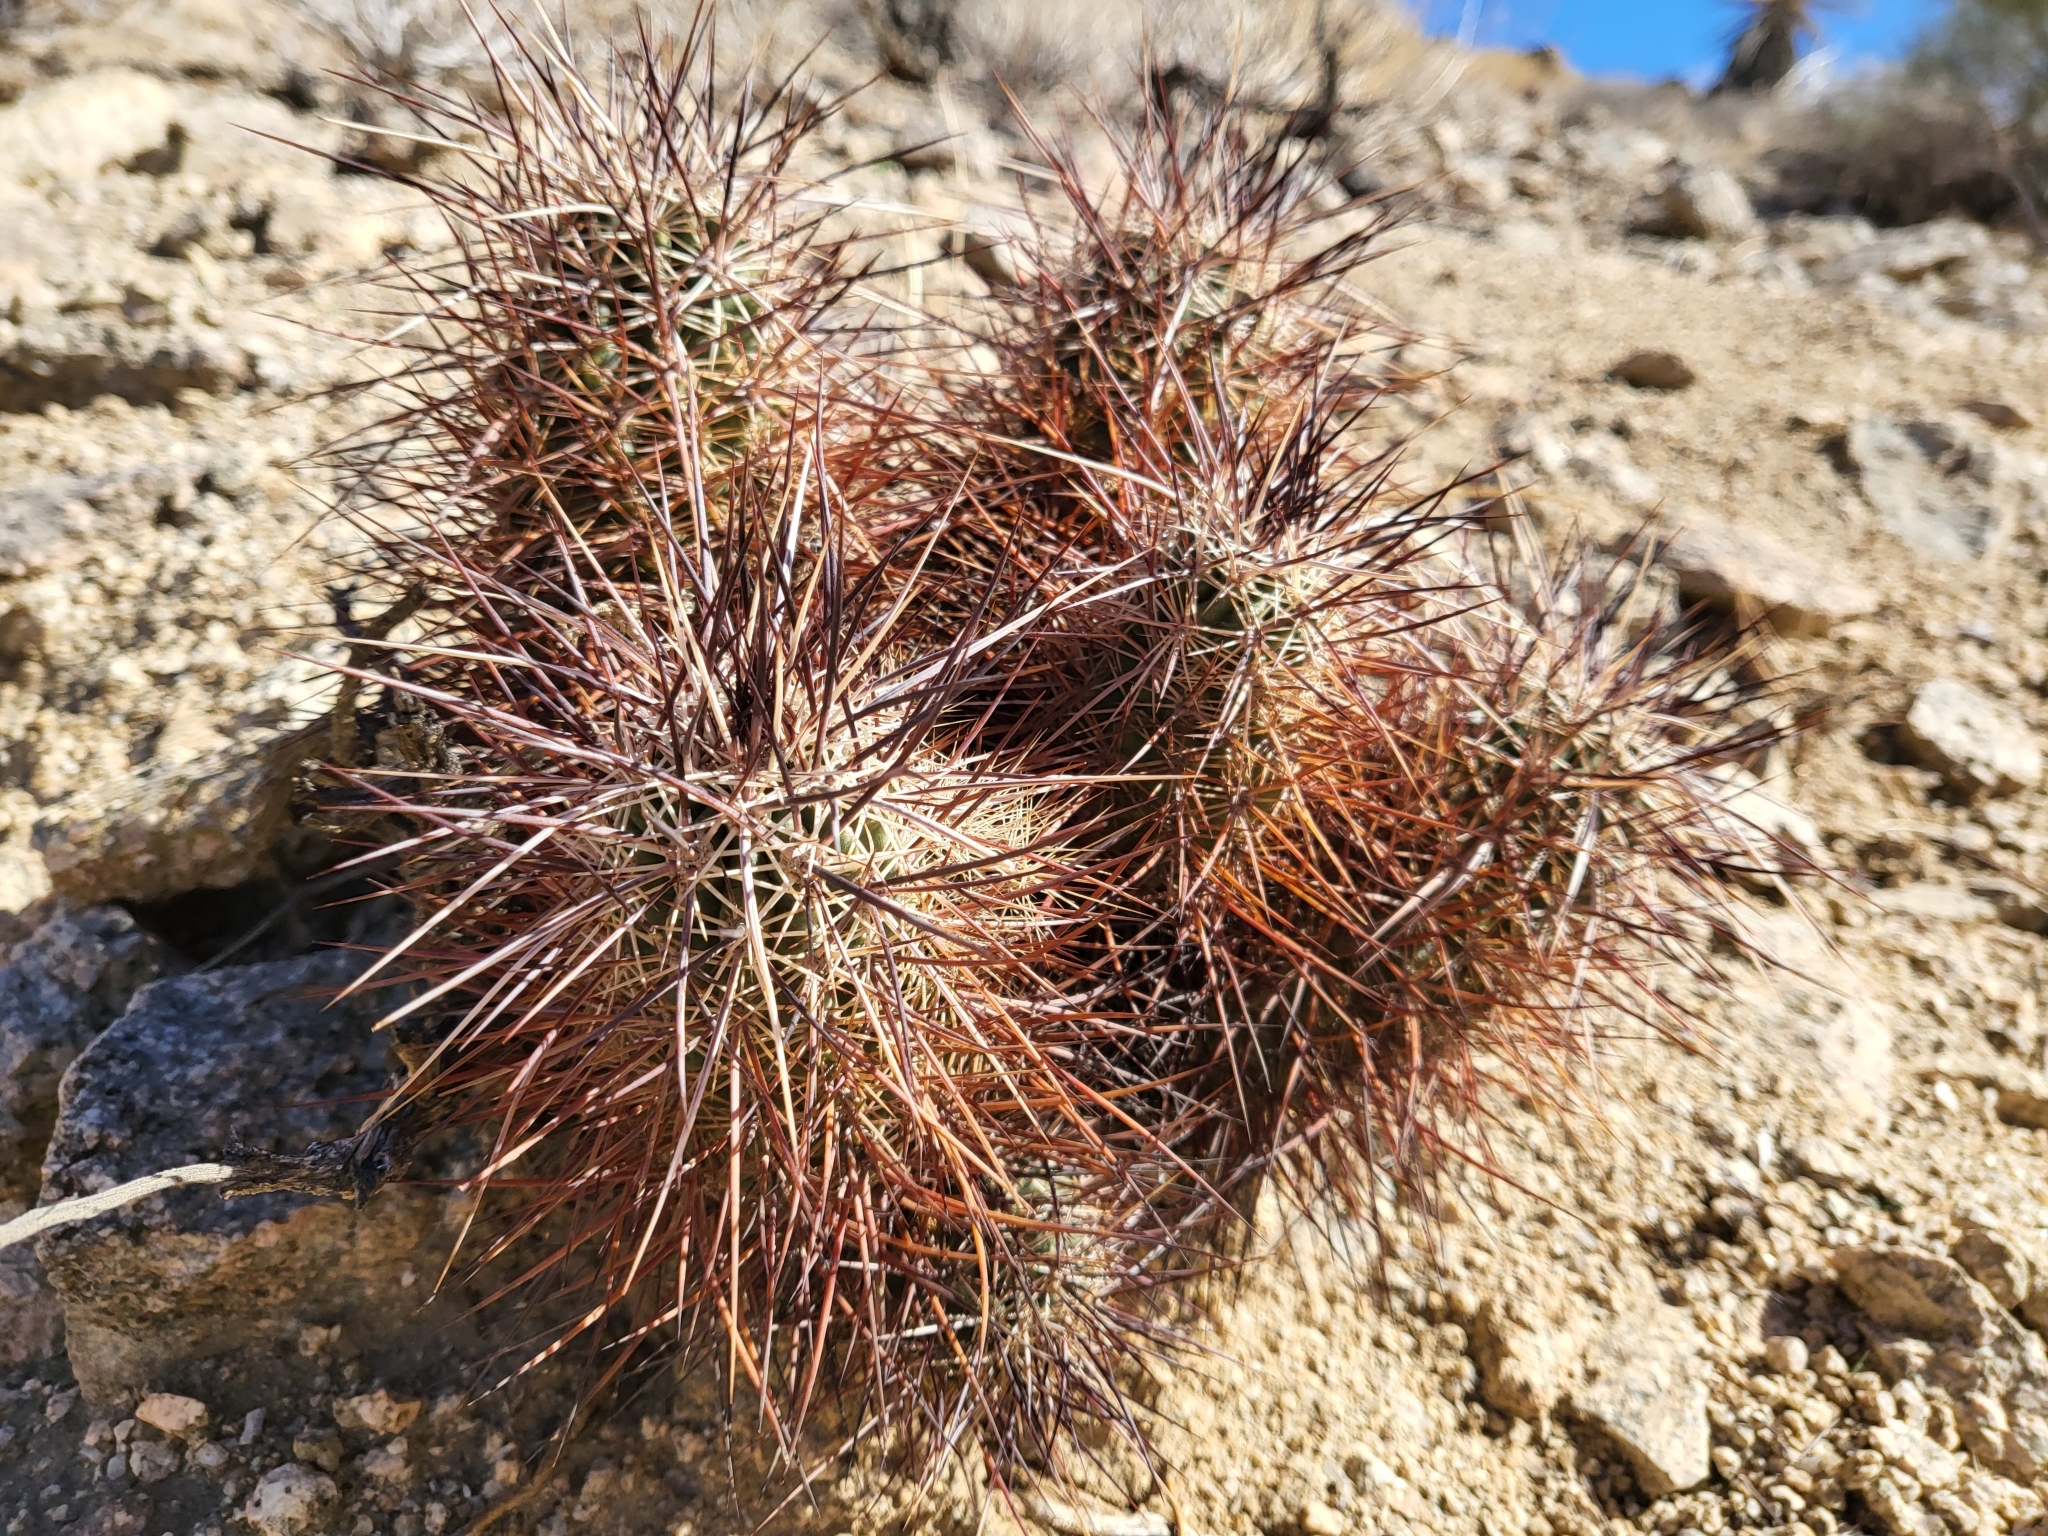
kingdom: Plantae
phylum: Tracheophyta
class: Magnoliopsida
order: Caryophyllales
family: Cactaceae
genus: Echinocereus
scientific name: Echinocereus engelmannii
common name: Engelmann's hedgehog cactus
